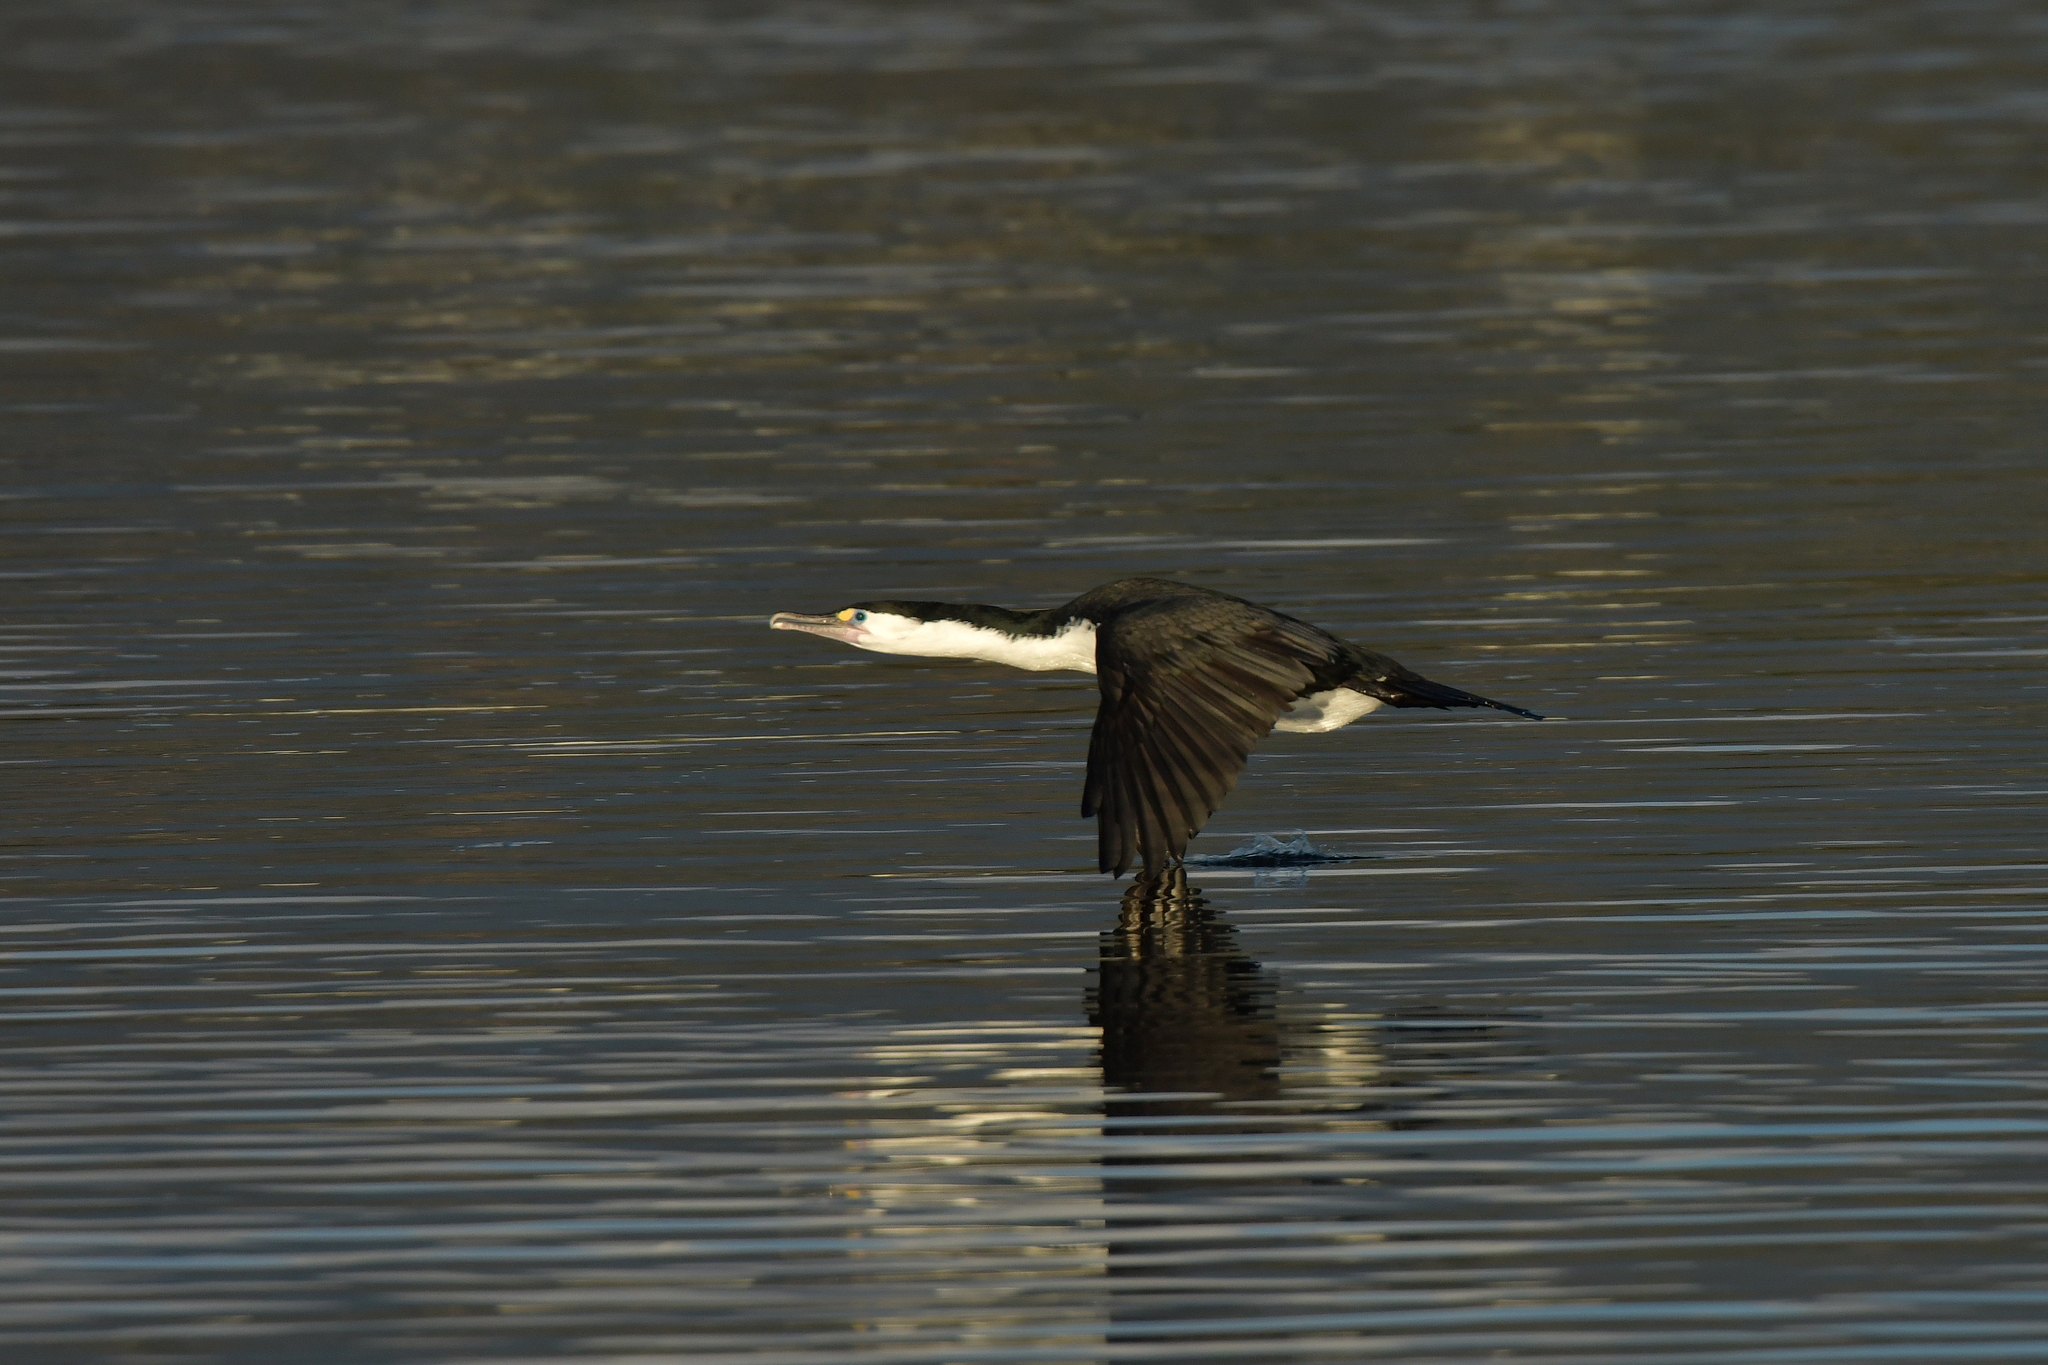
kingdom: Animalia
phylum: Chordata
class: Aves
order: Suliformes
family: Phalacrocoracidae
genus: Phalacrocorax
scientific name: Phalacrocorax varius
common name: Pied cormorant
